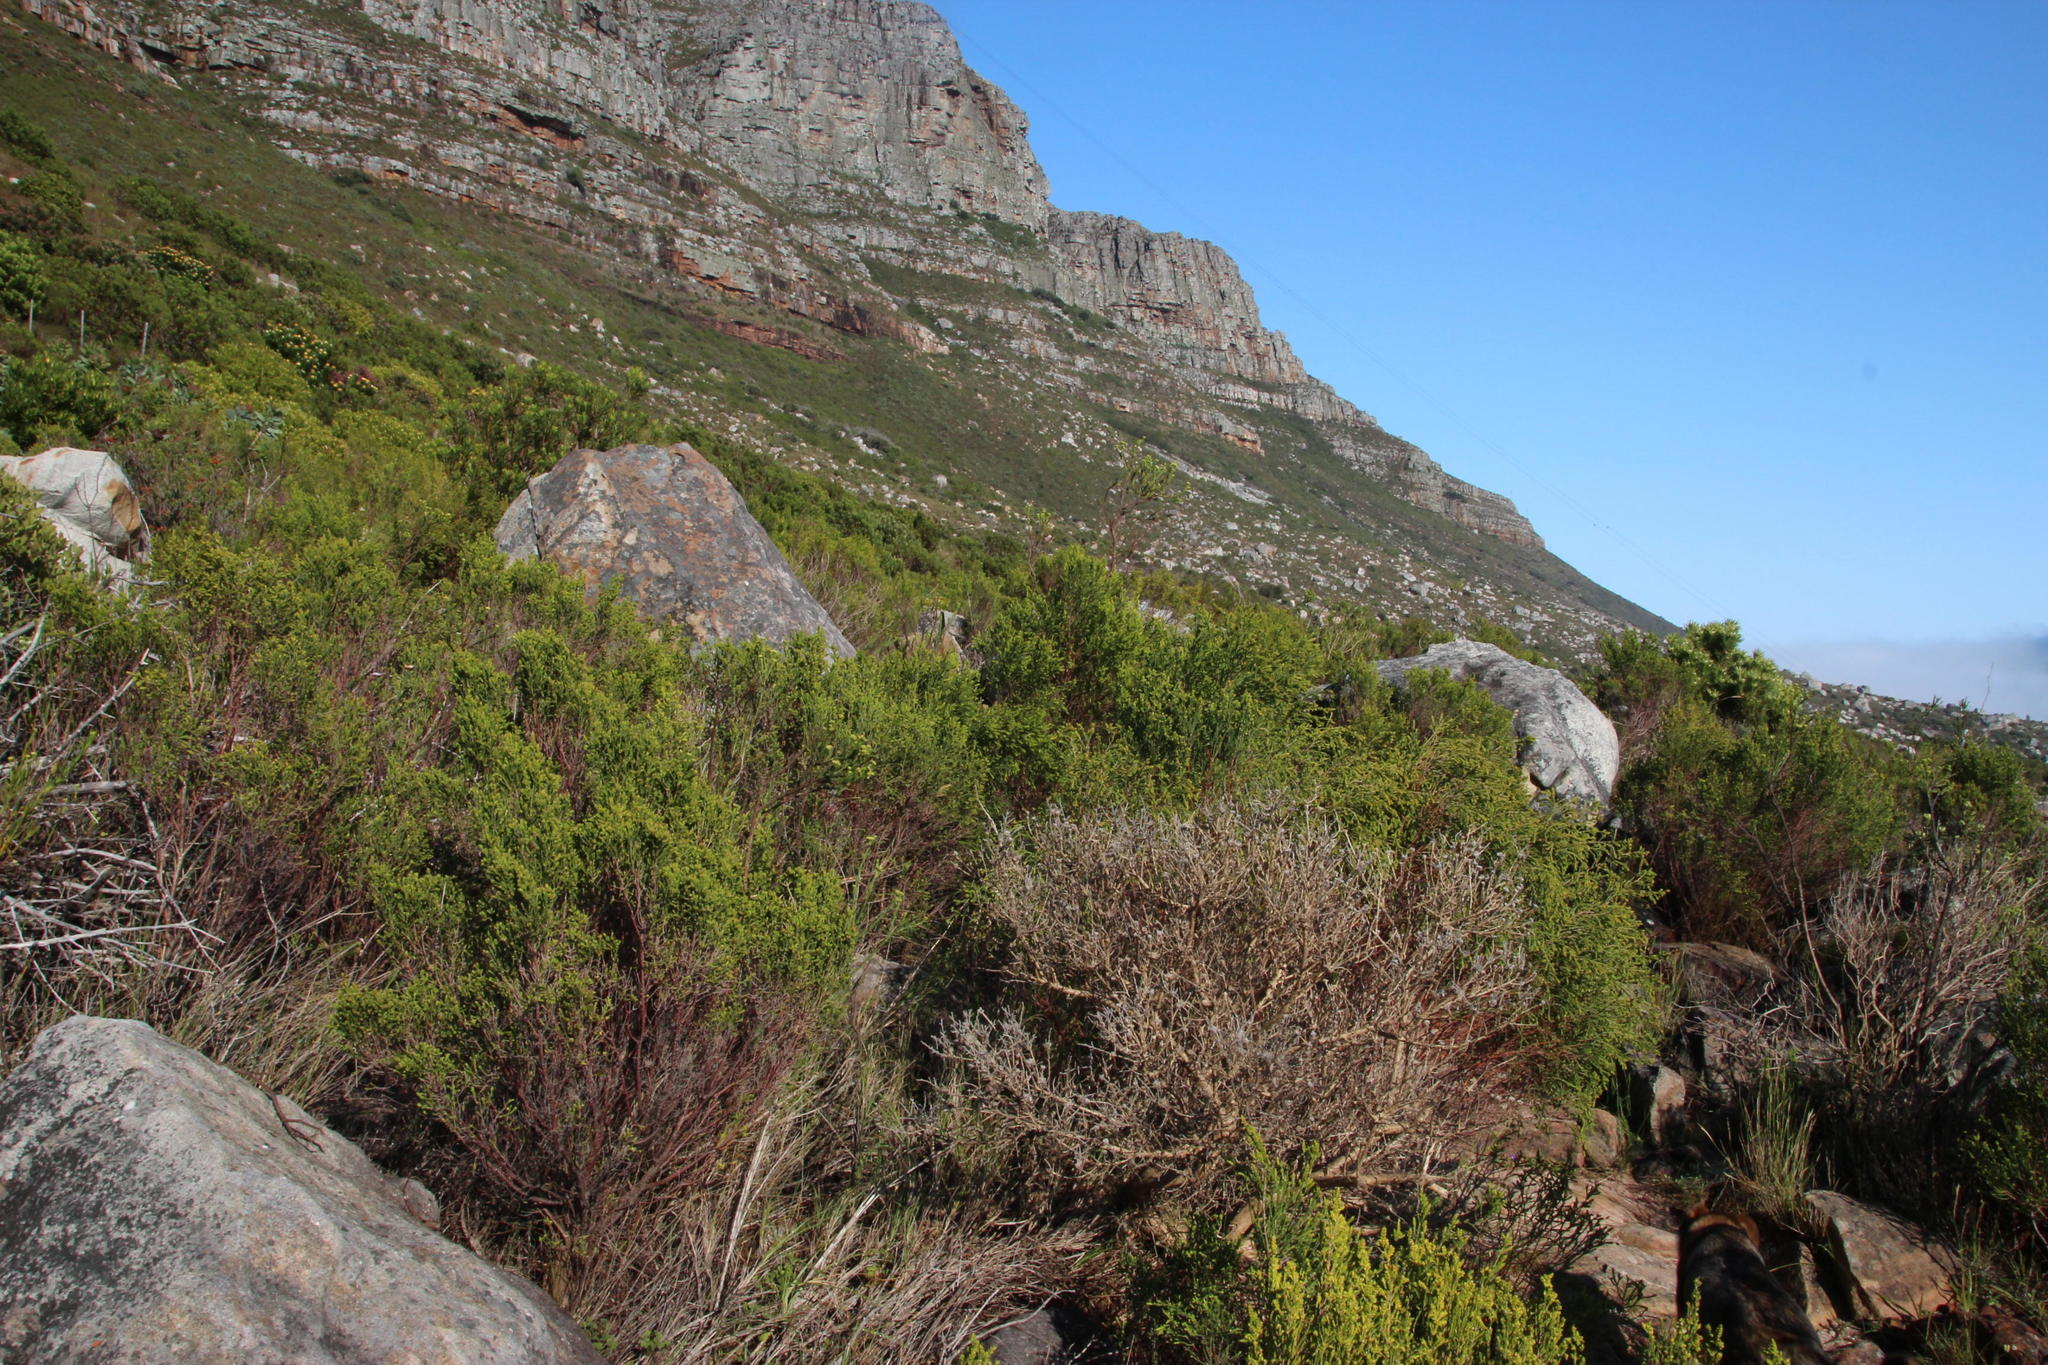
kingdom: Plantae
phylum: Tracheophyta
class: Magnoliopsida
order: Malvales
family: Thymelaeaceae
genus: Passerina
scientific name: Passerina corymbosa
